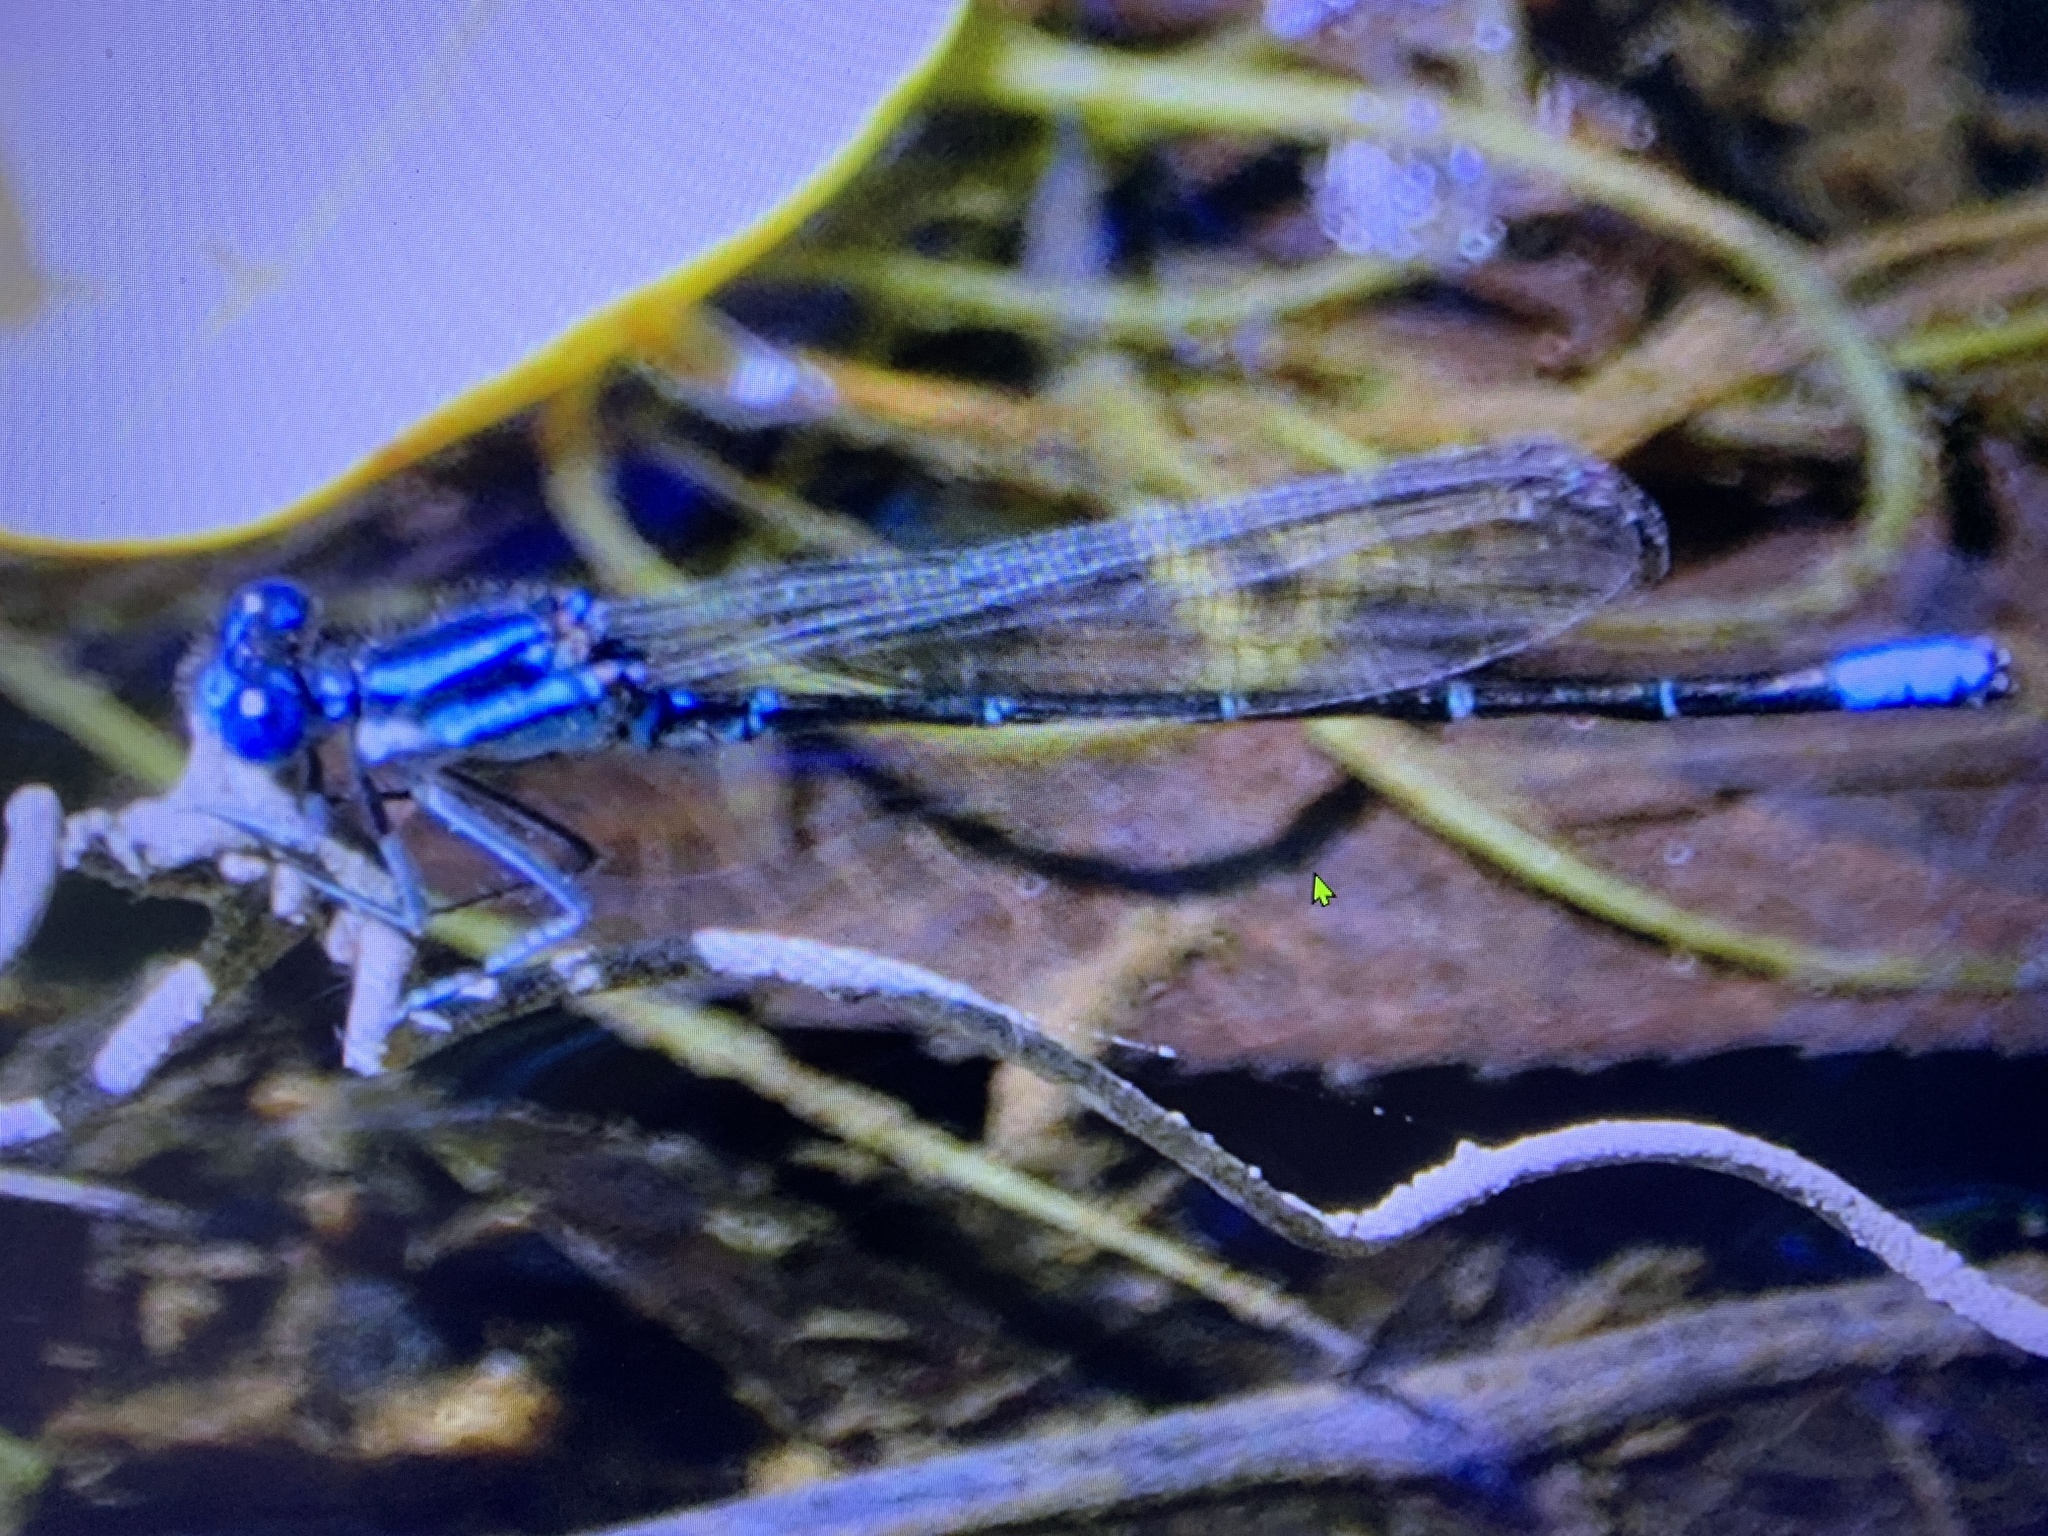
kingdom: Animalia
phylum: Arthropoda
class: Insecta
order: Odonata
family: Coenagrionidae
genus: Argia
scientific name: Argia sedula
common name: Blue-ringed dancer
